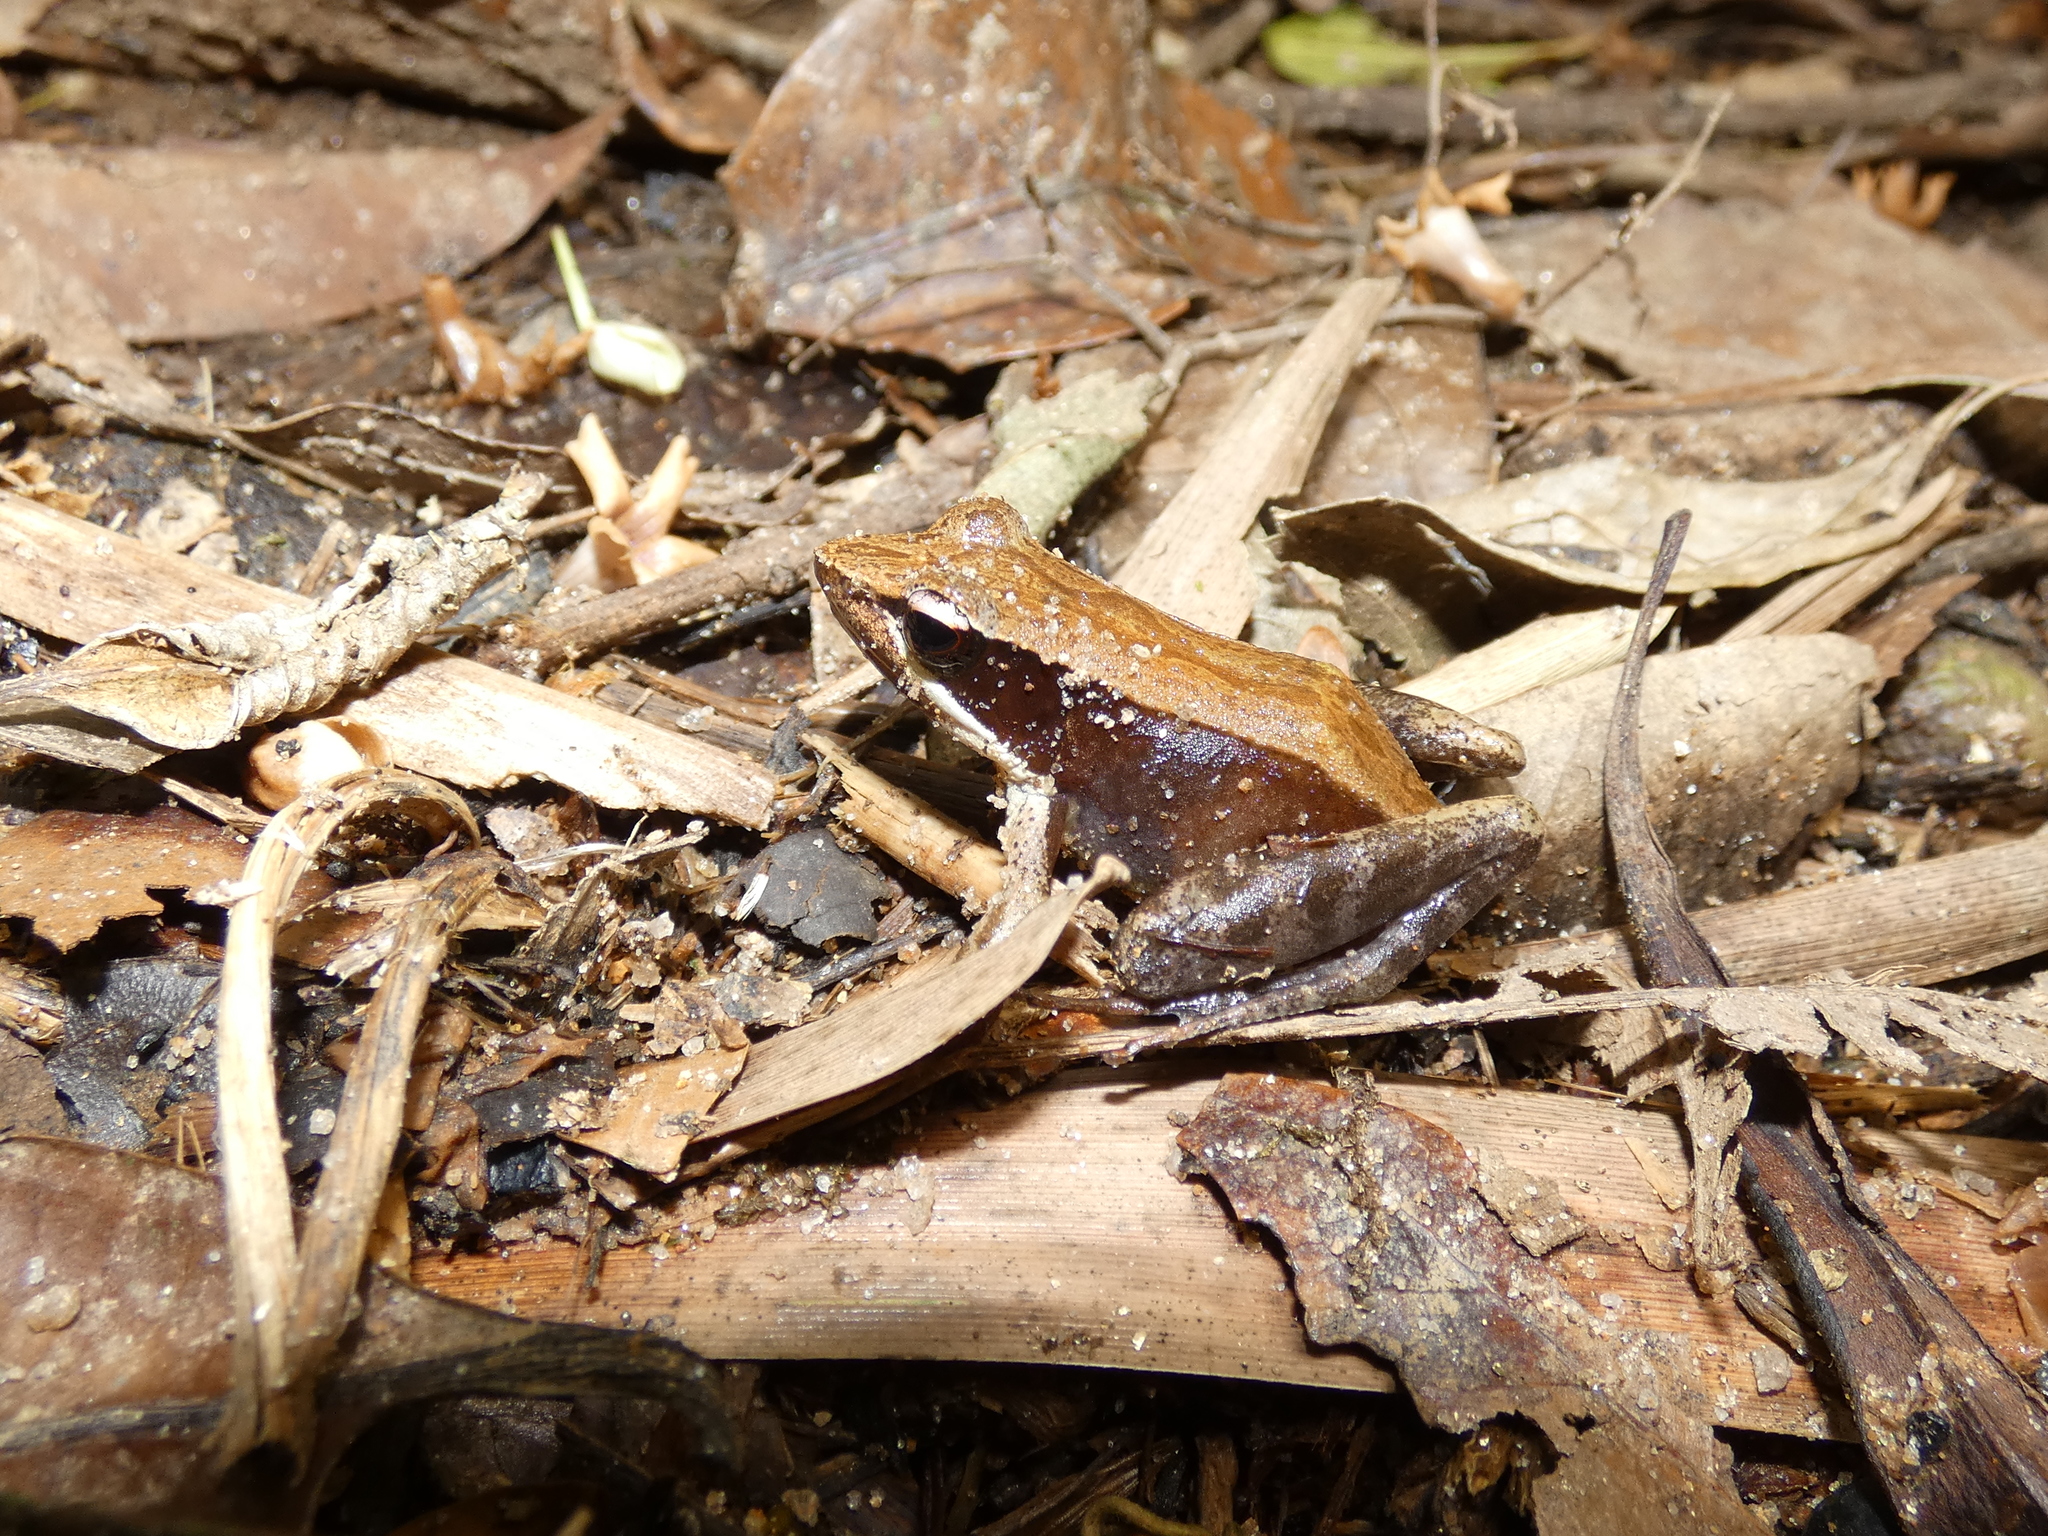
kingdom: Animalia
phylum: Chordata
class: Amphibia
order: Anura
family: Mantellidae
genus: Mantidactylus
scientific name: Mantidactylus melanopleura
